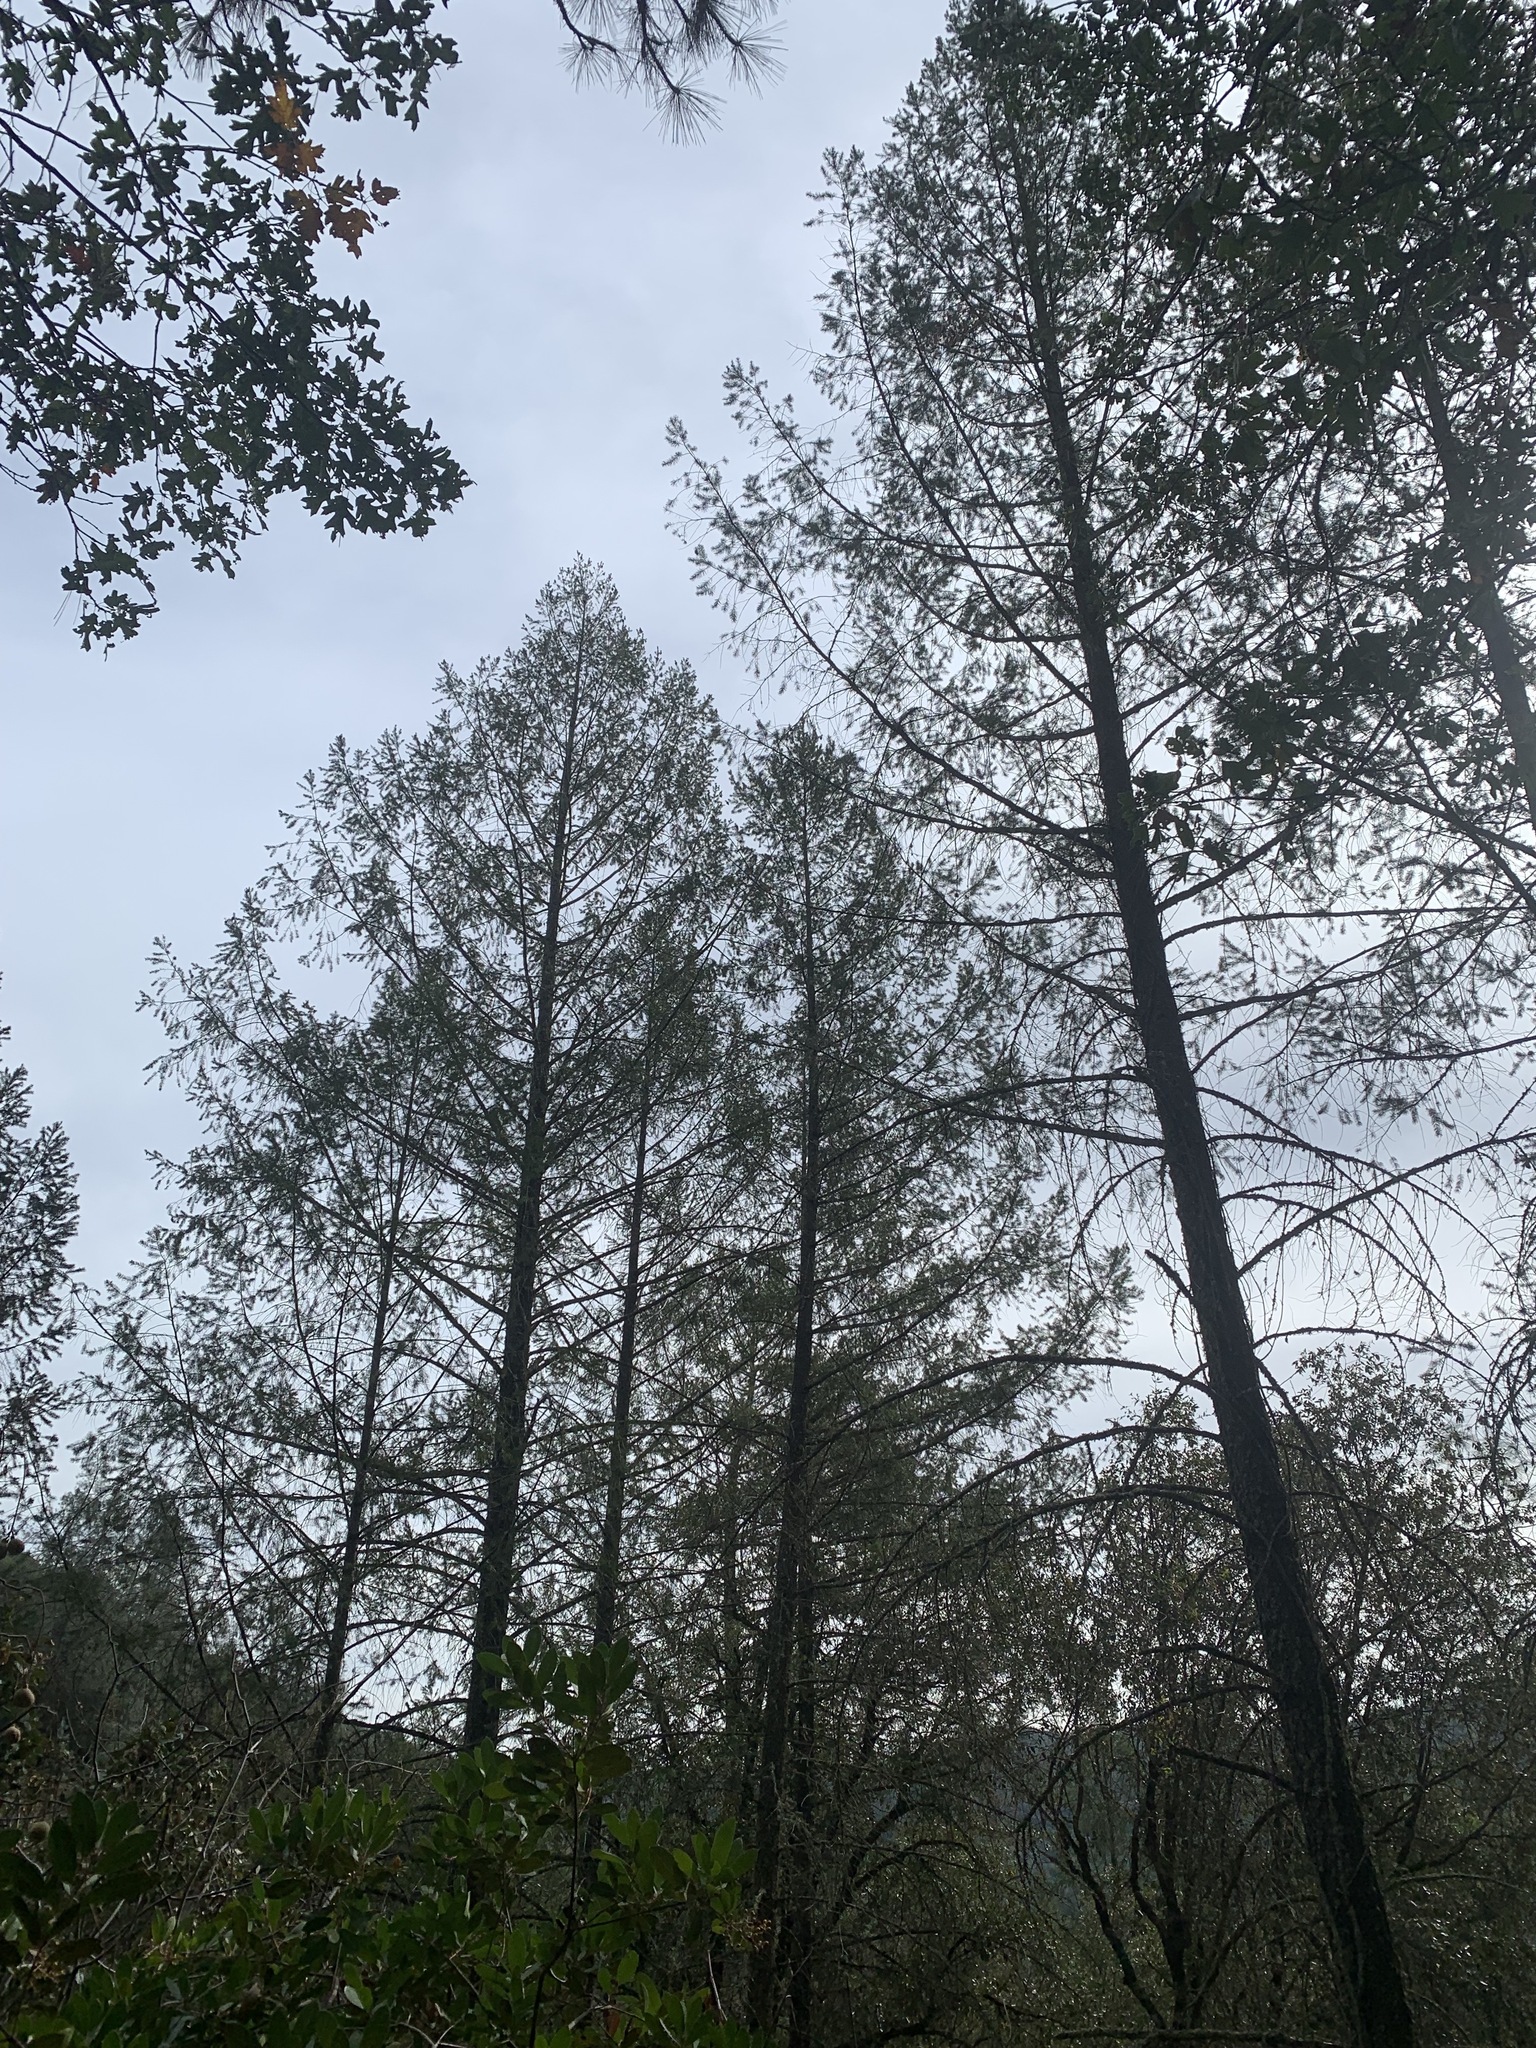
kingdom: Plantae
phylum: Tracheophyta
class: Pinopsida
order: Pinales
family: Pinaceae
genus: Pseudotsuga
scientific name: Pseudotsuga menziesii
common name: Douglas fir
